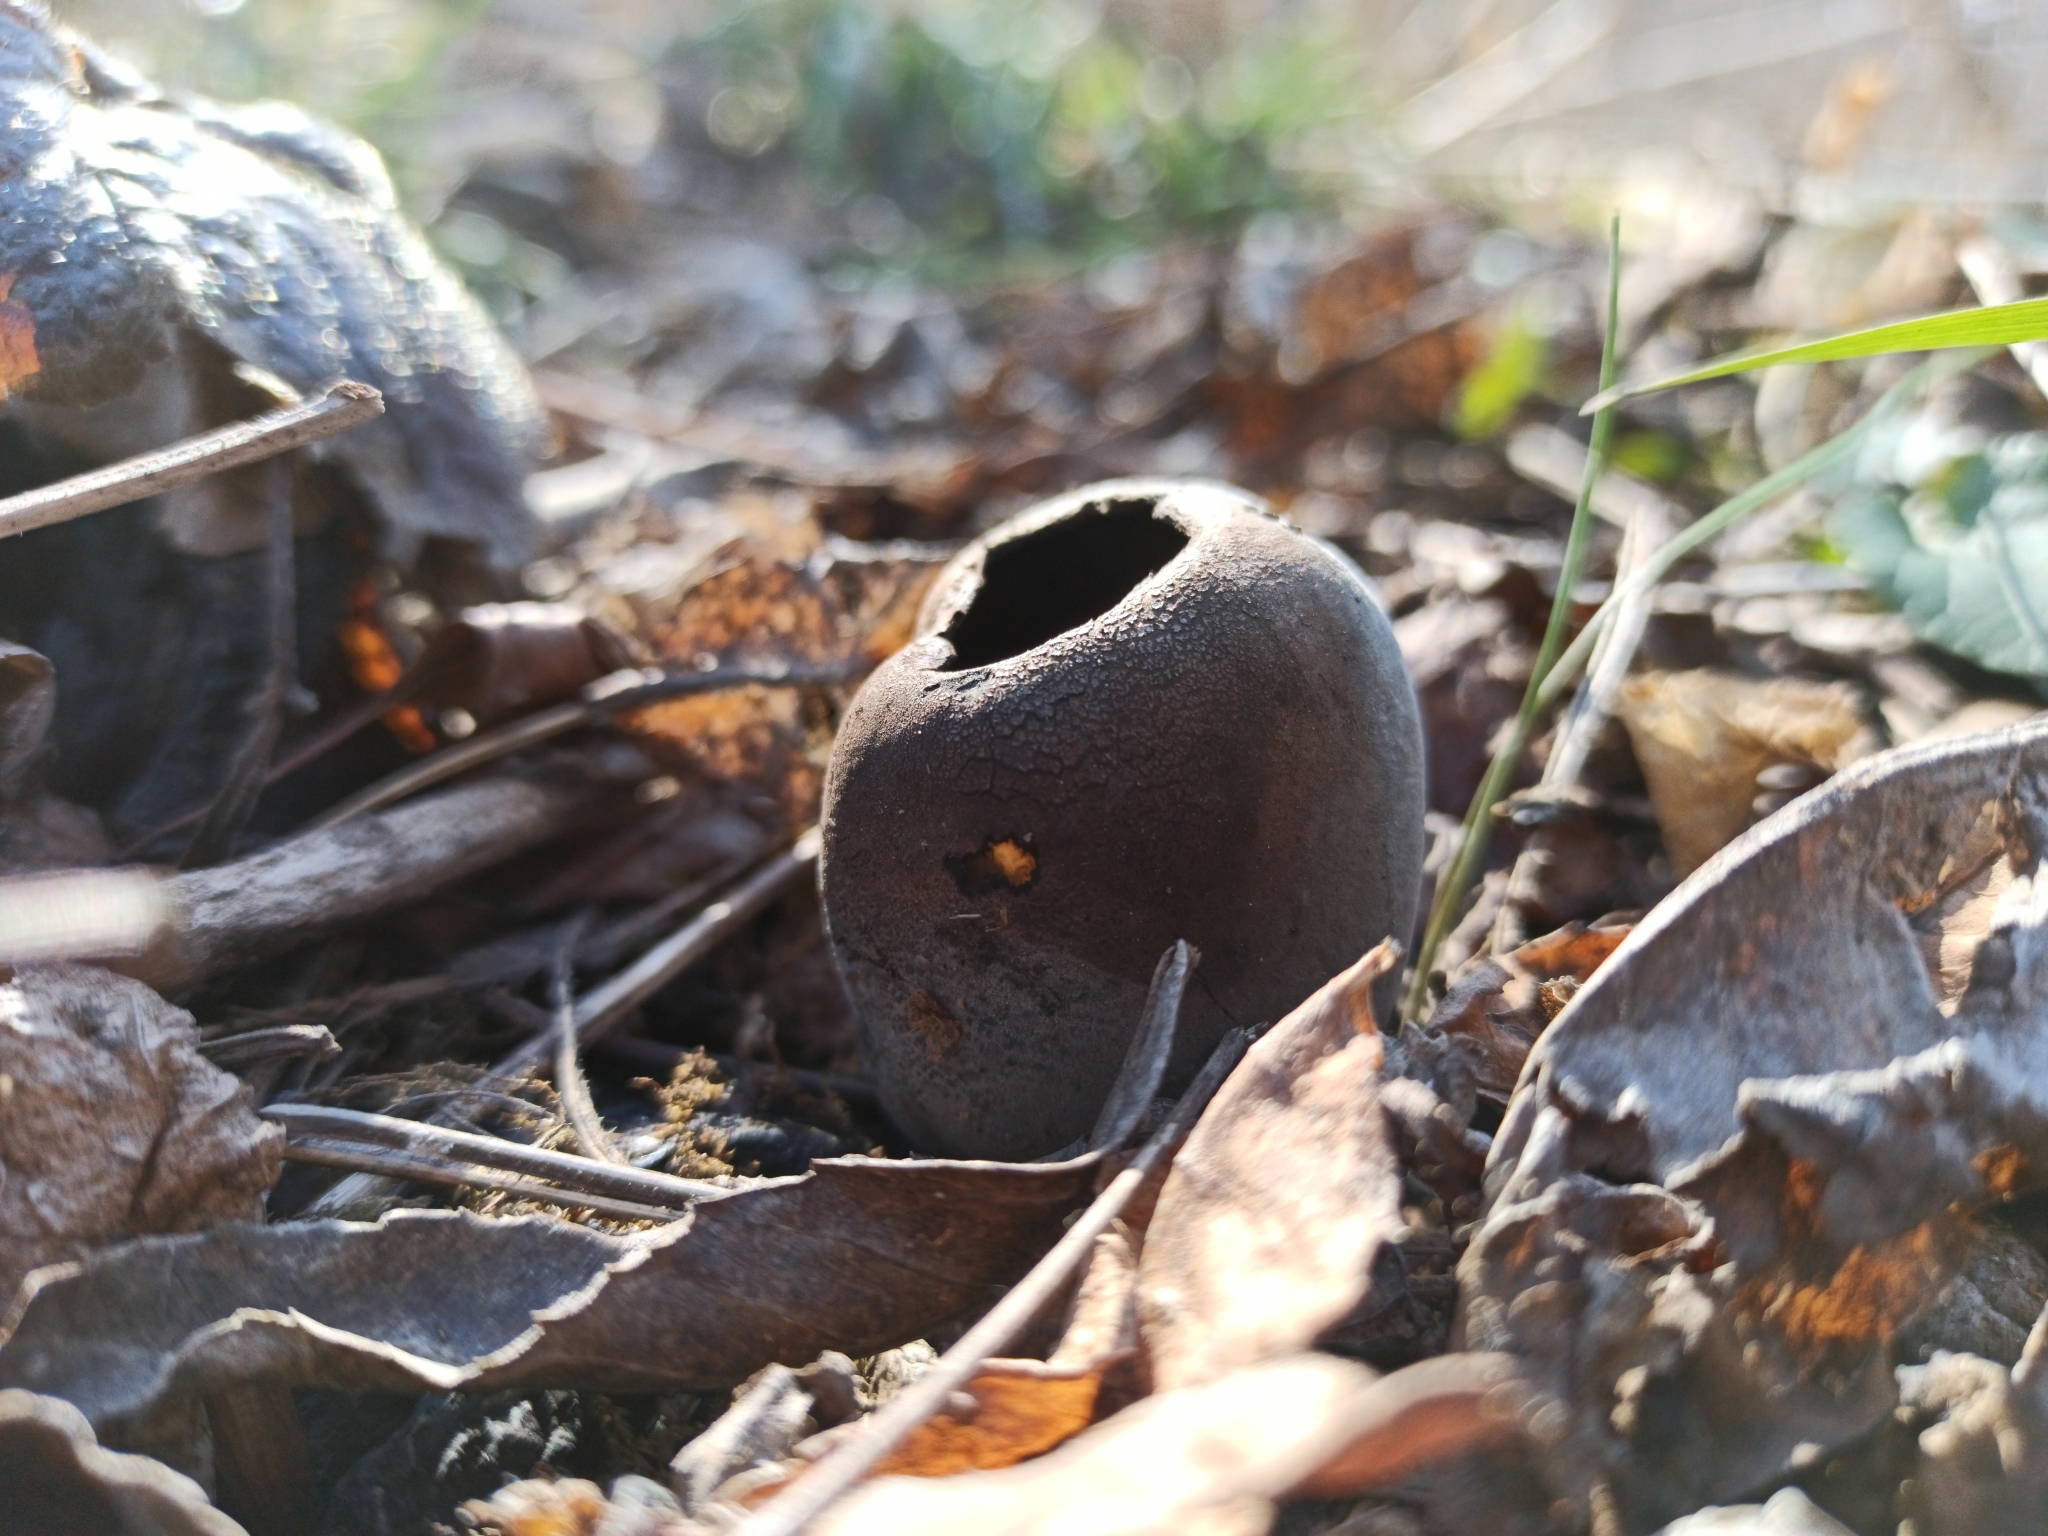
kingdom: Fungi
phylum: Ascomycota
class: Pezizomycetes
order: Pezizales
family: Sarcosomataceae
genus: Urnula
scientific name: Urnula craterium
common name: Devil's urn
